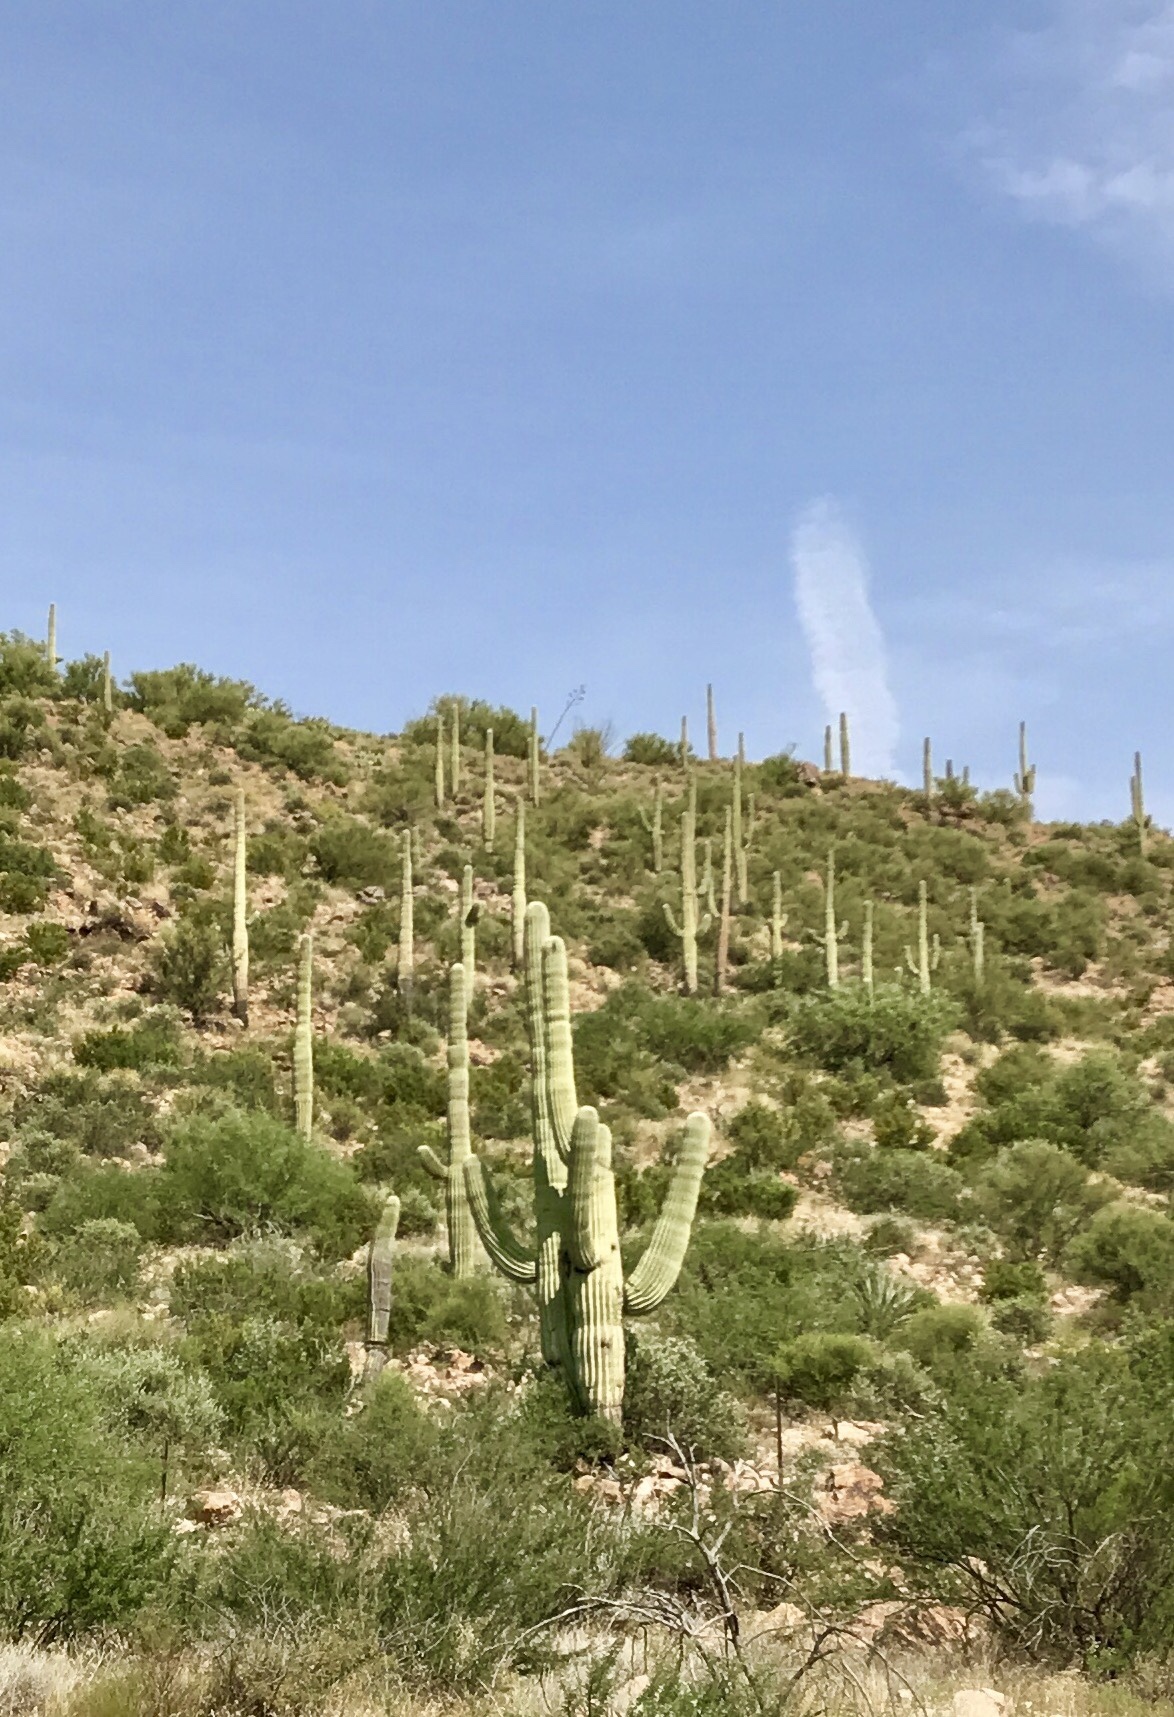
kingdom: Plantae
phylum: Tracheophyta
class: Magnoliopsida
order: Caryophyllales
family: Cactaceae
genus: Carnegiea
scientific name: Carnegiea gigantea
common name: Saguaro
